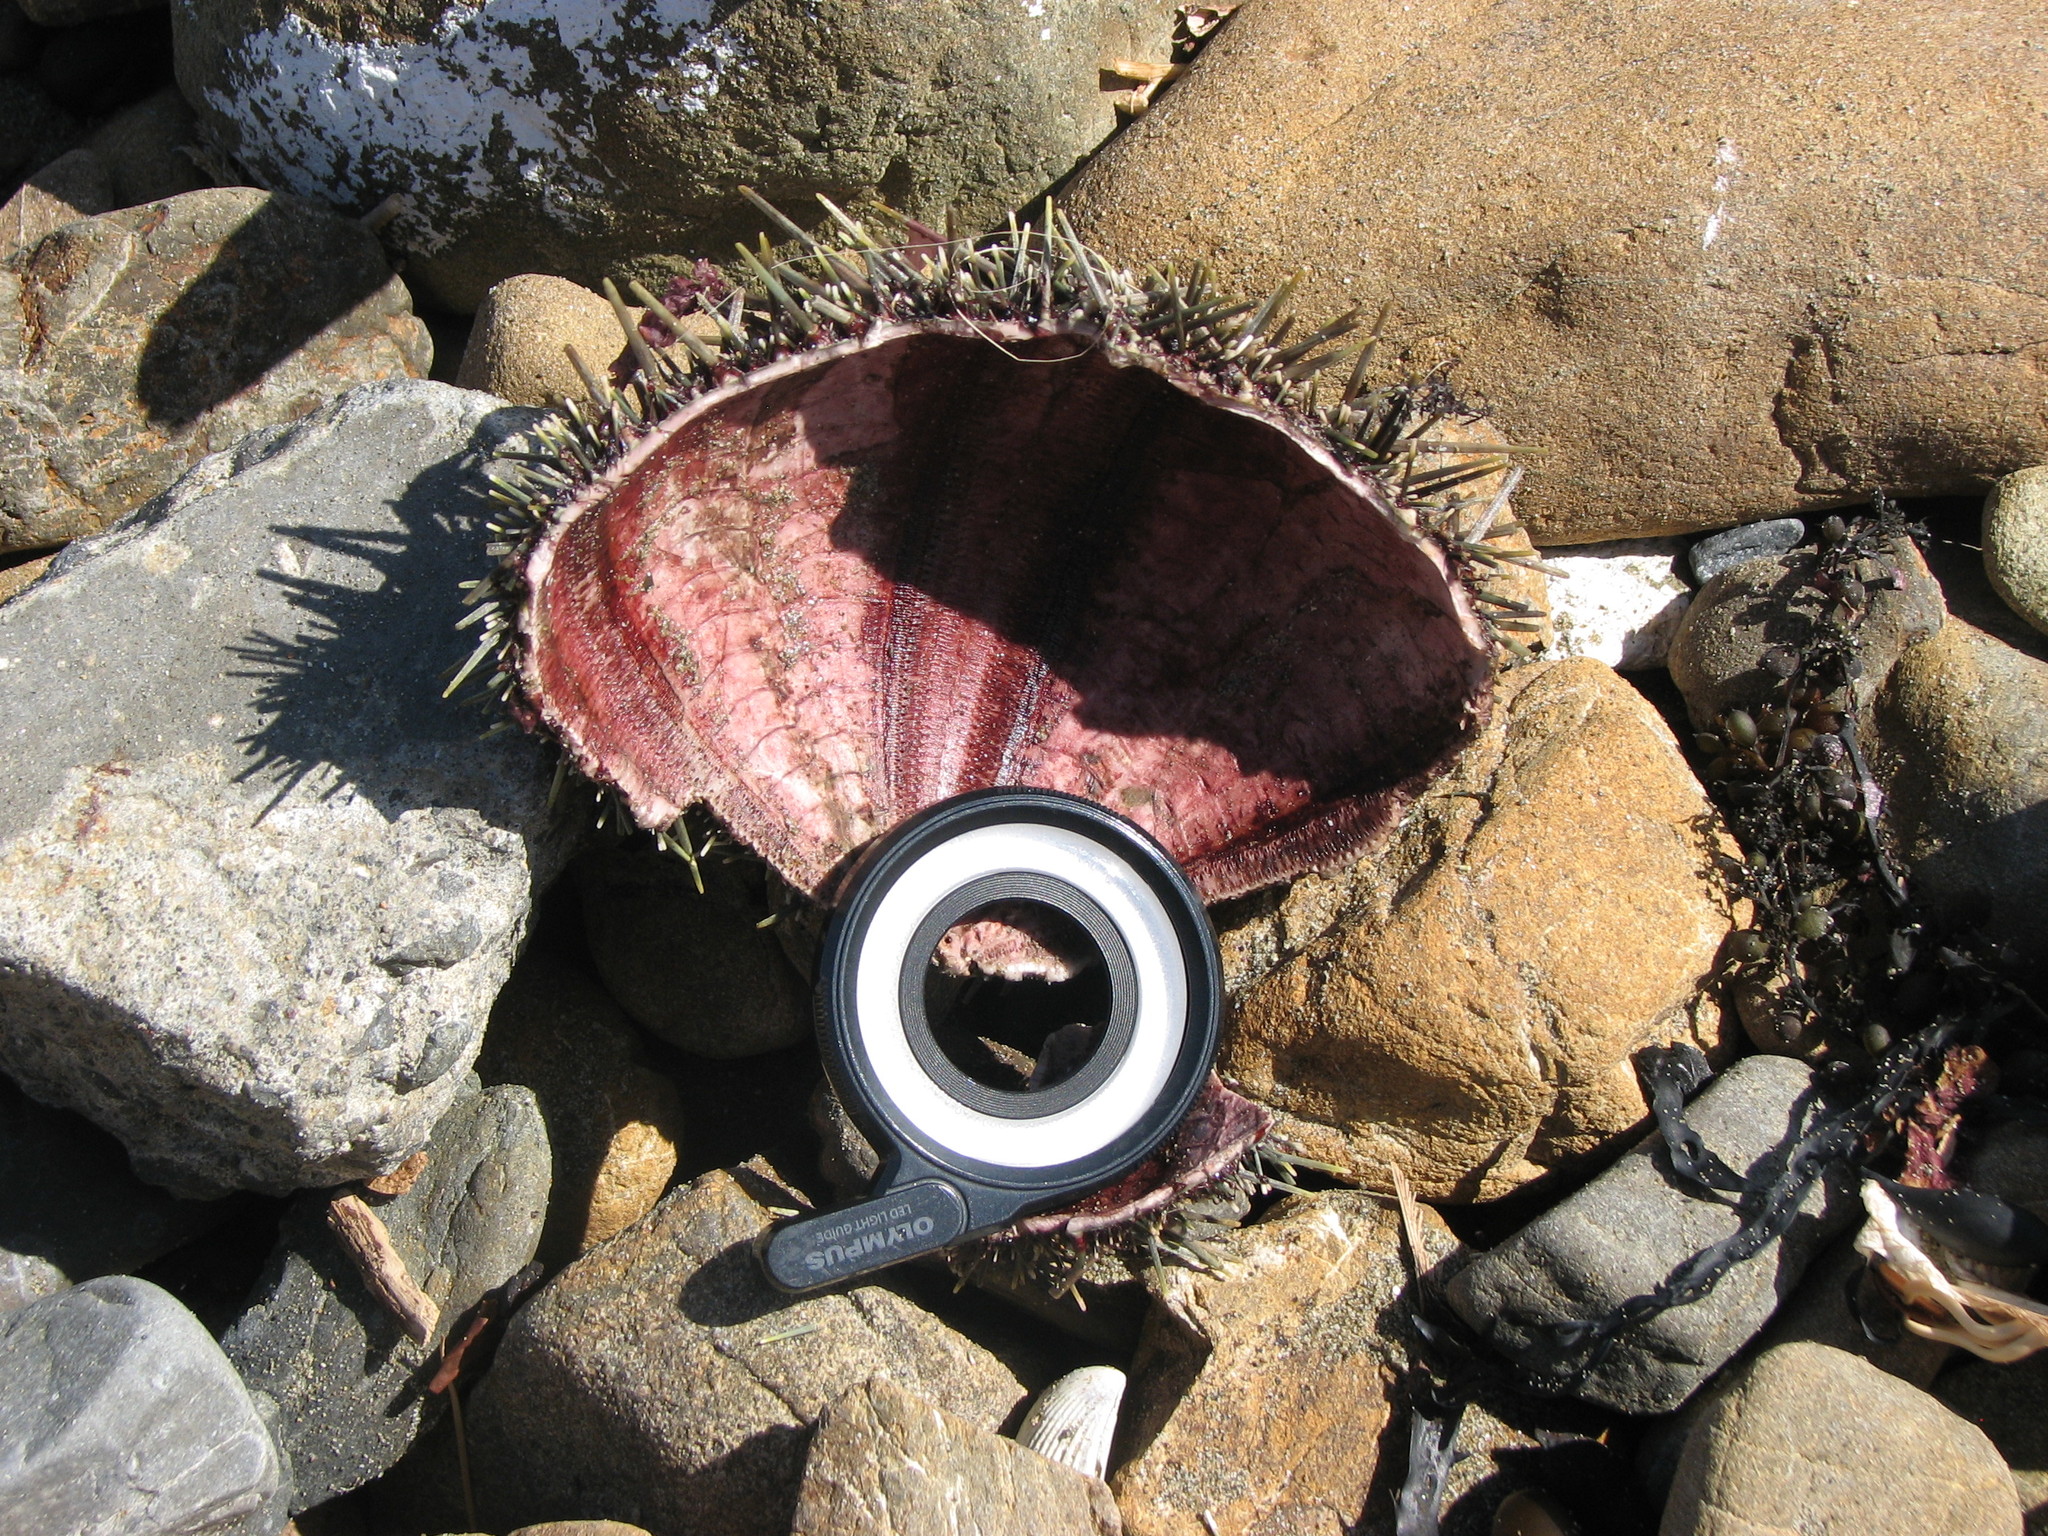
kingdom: Animalia
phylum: Echinodermata
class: Echinoidea
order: Camarodonta
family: Echinometridae
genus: Evechinus
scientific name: Evechinus chloroticus
